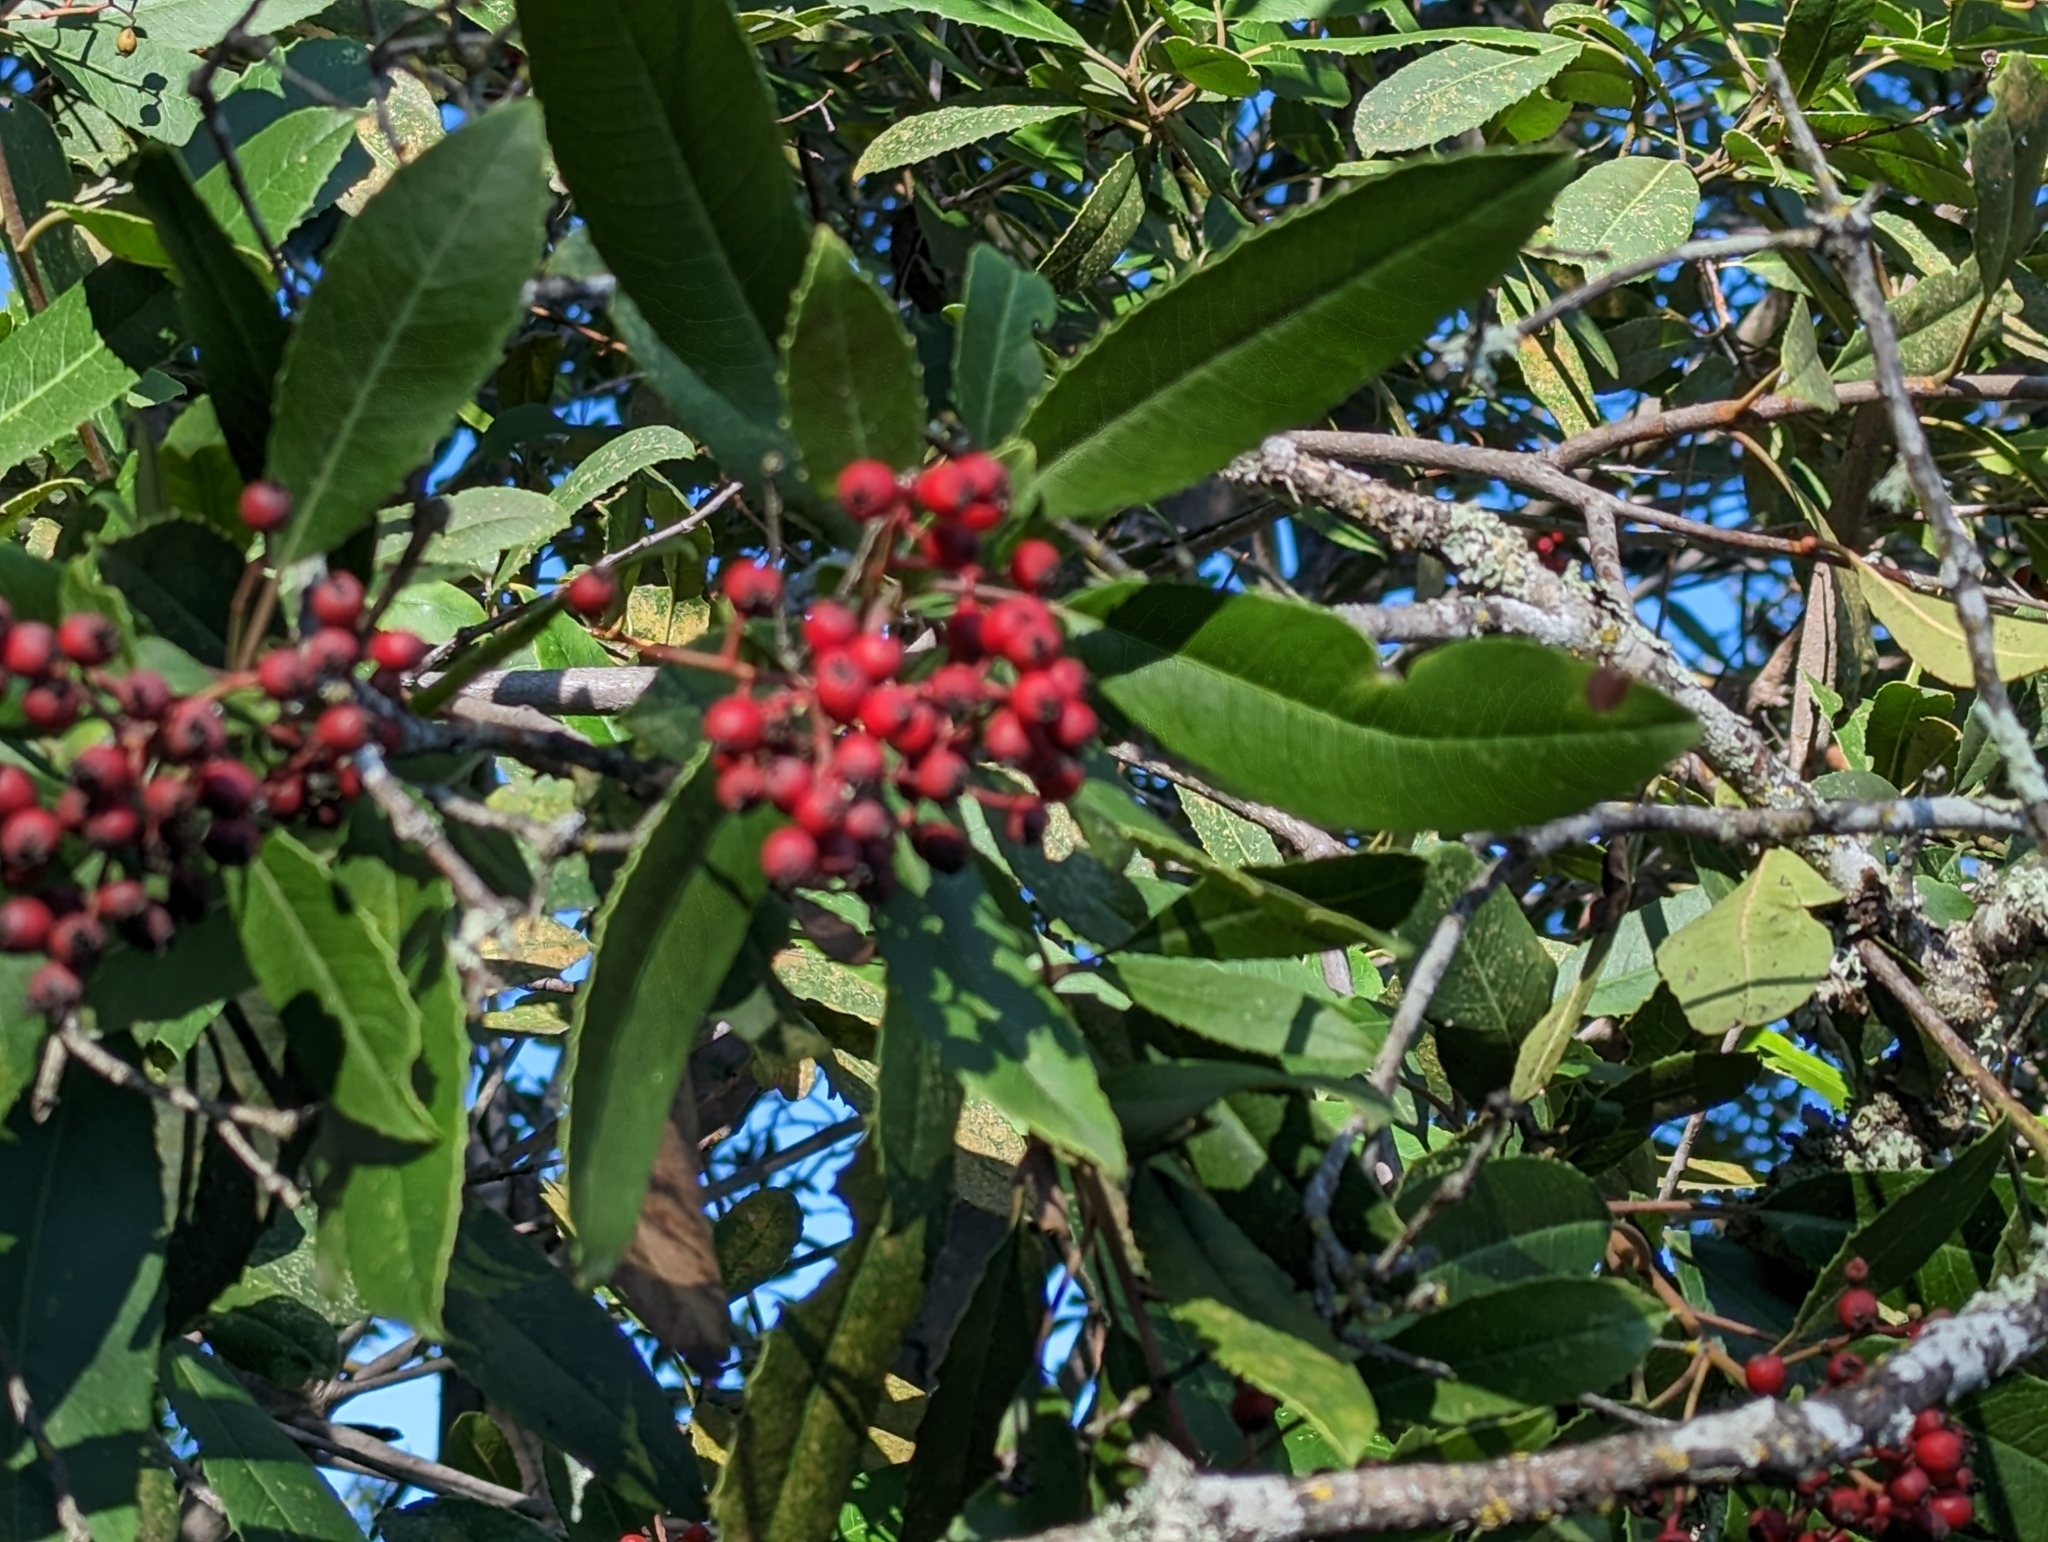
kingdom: Plantae
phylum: Tracheophyta
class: Magnoliopsida
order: Rosales
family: Rosaceae
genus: Heteromeles
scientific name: Heteromeles arbutifolia
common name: California-holly
